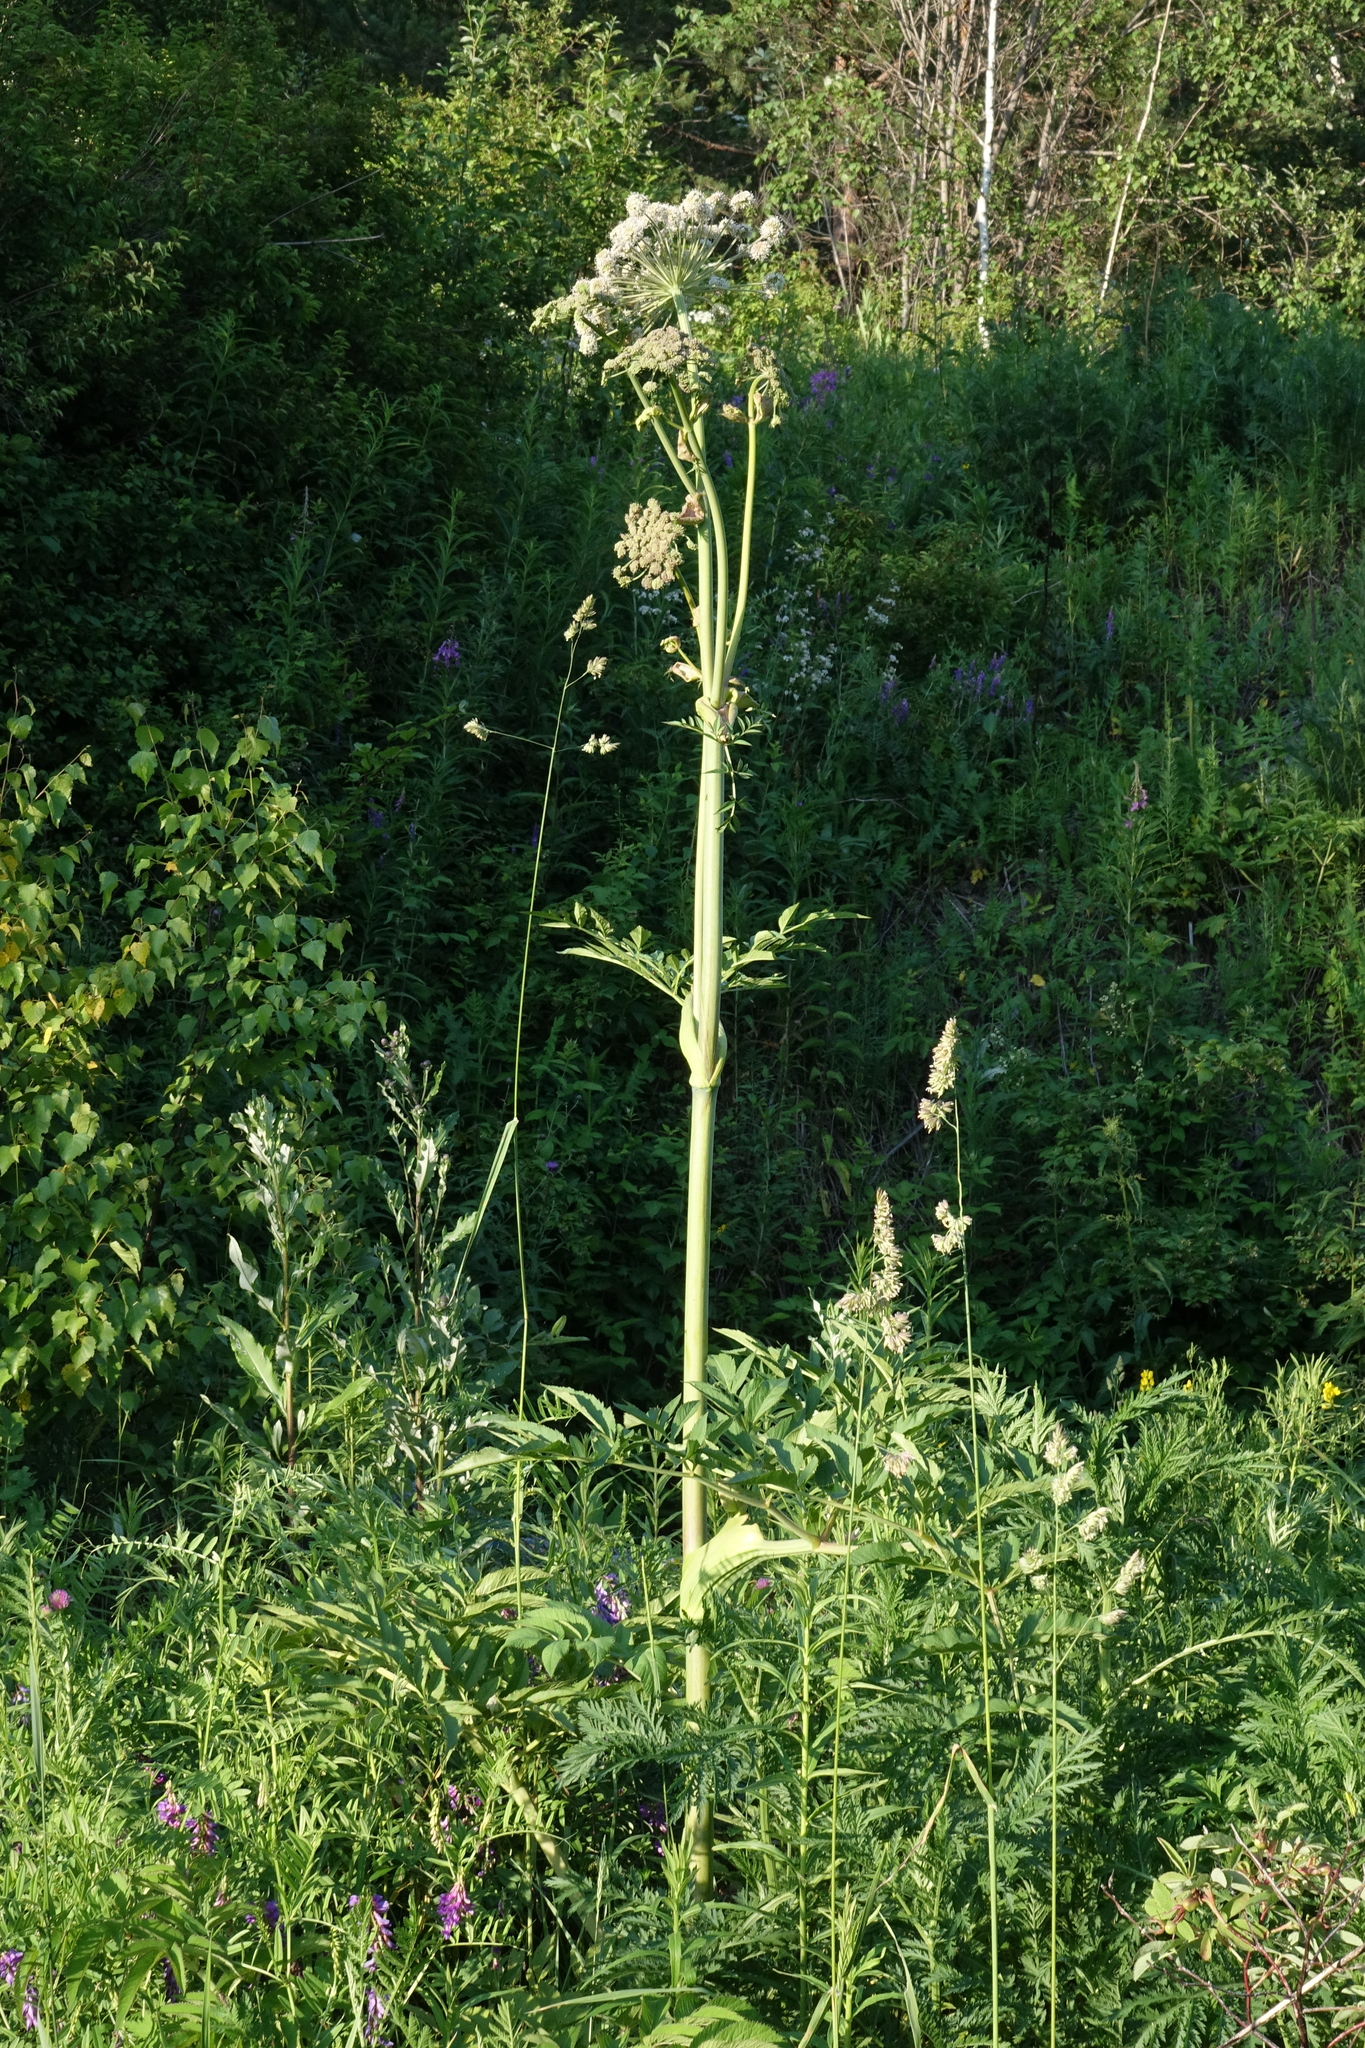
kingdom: Plantae
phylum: Tracheophyta
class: Magnoliopsida
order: Apiales
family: Apiaceae
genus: Angelica
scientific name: Angelica sylvestris
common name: Wild angelica
